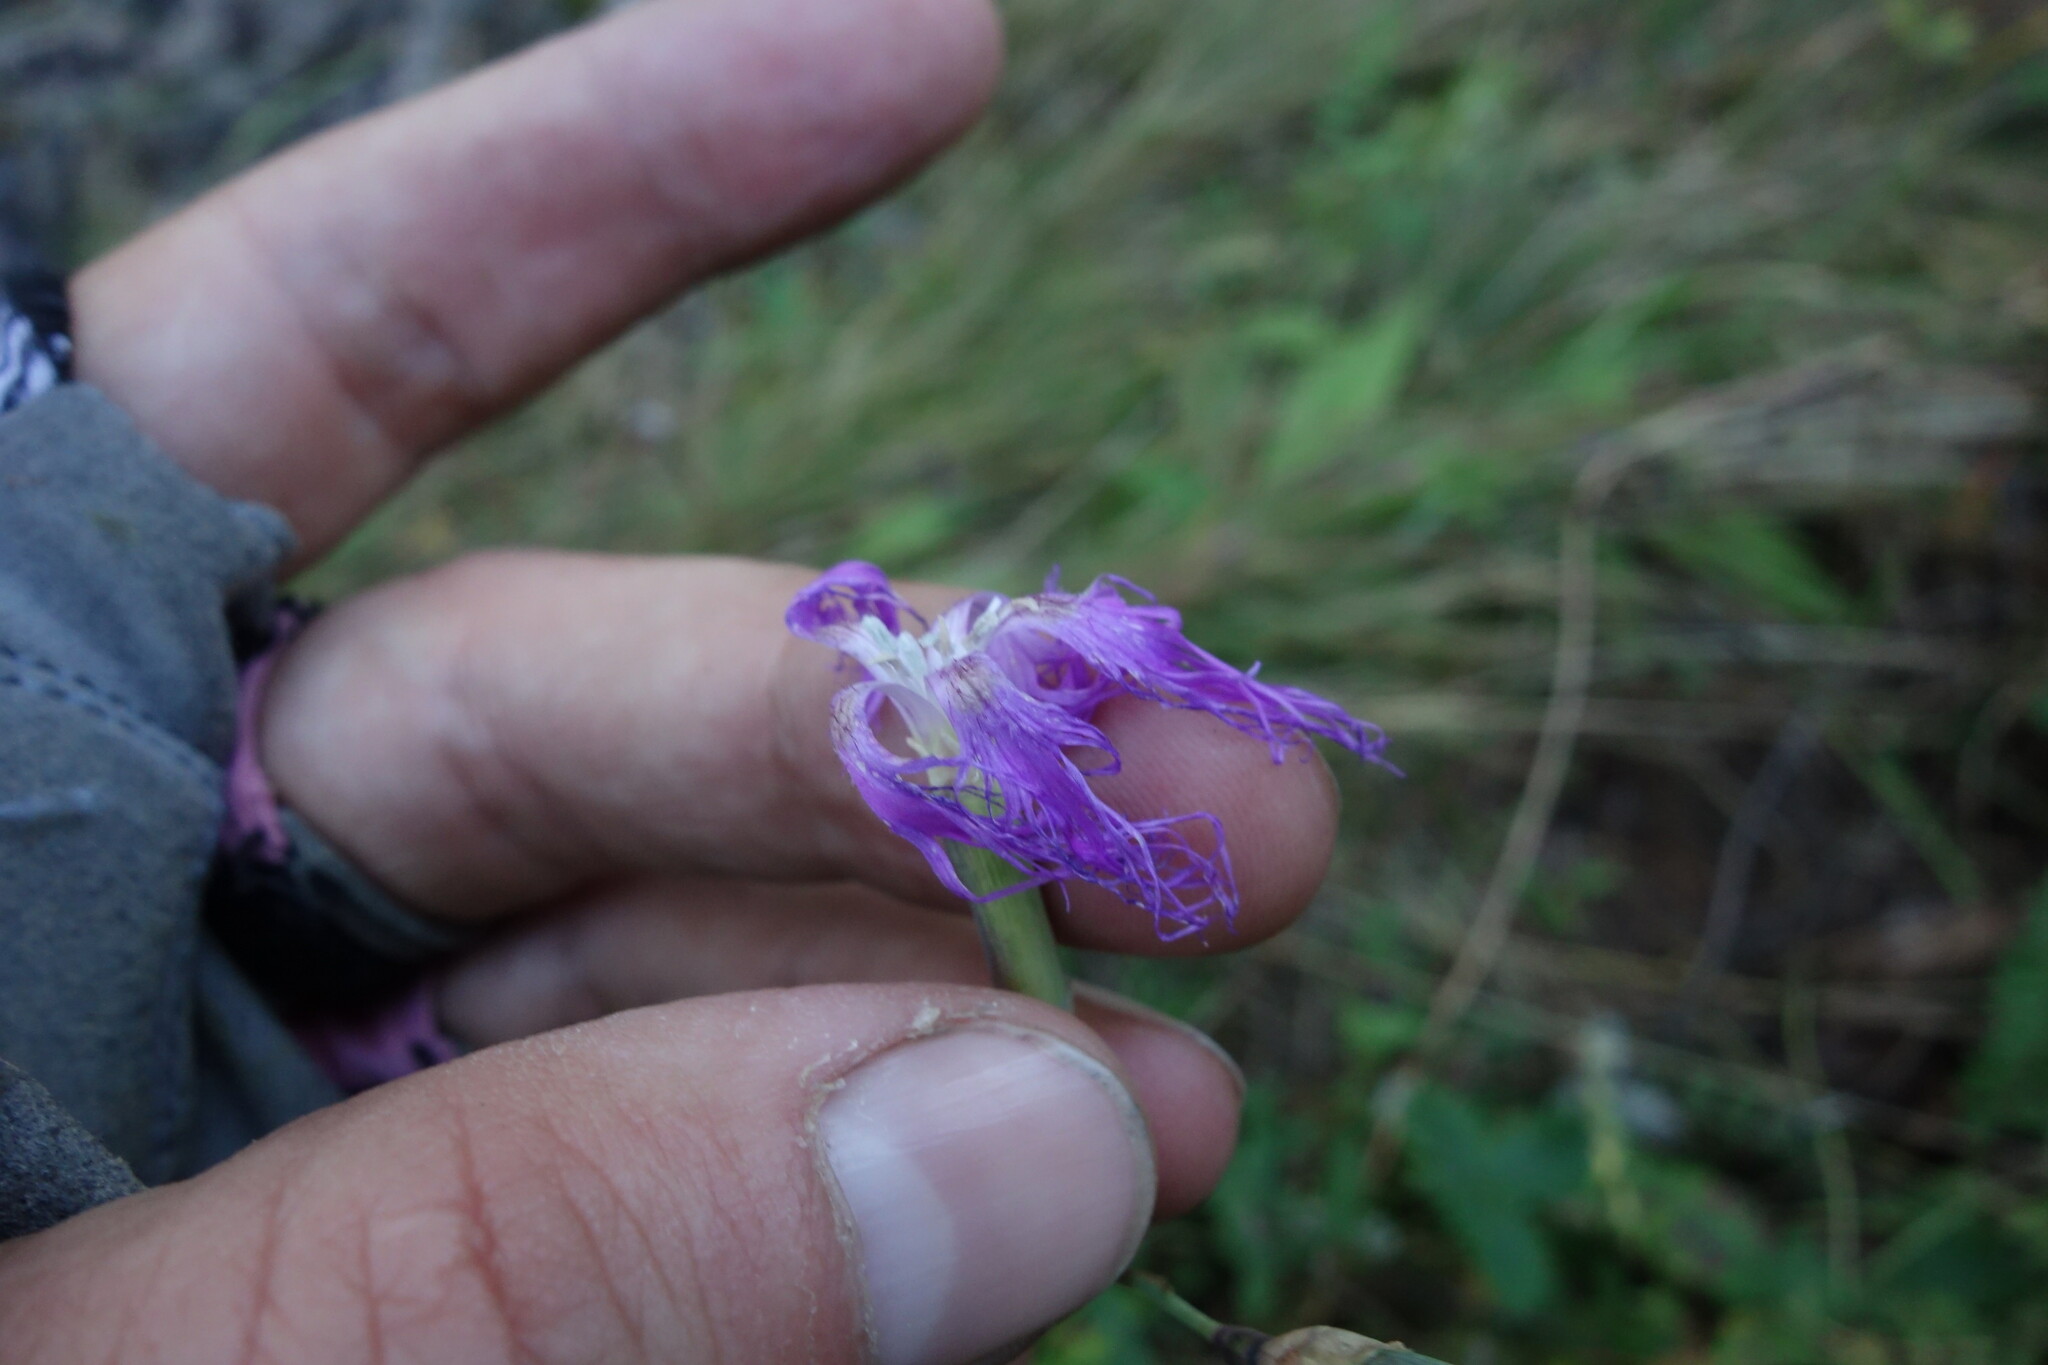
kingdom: Plantae
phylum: Tracheophyta
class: Magnoliopsida
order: Caryophyllales
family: Caryophyllaceae
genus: Dianthus
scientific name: Dianthus superbus
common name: Fringed pink
